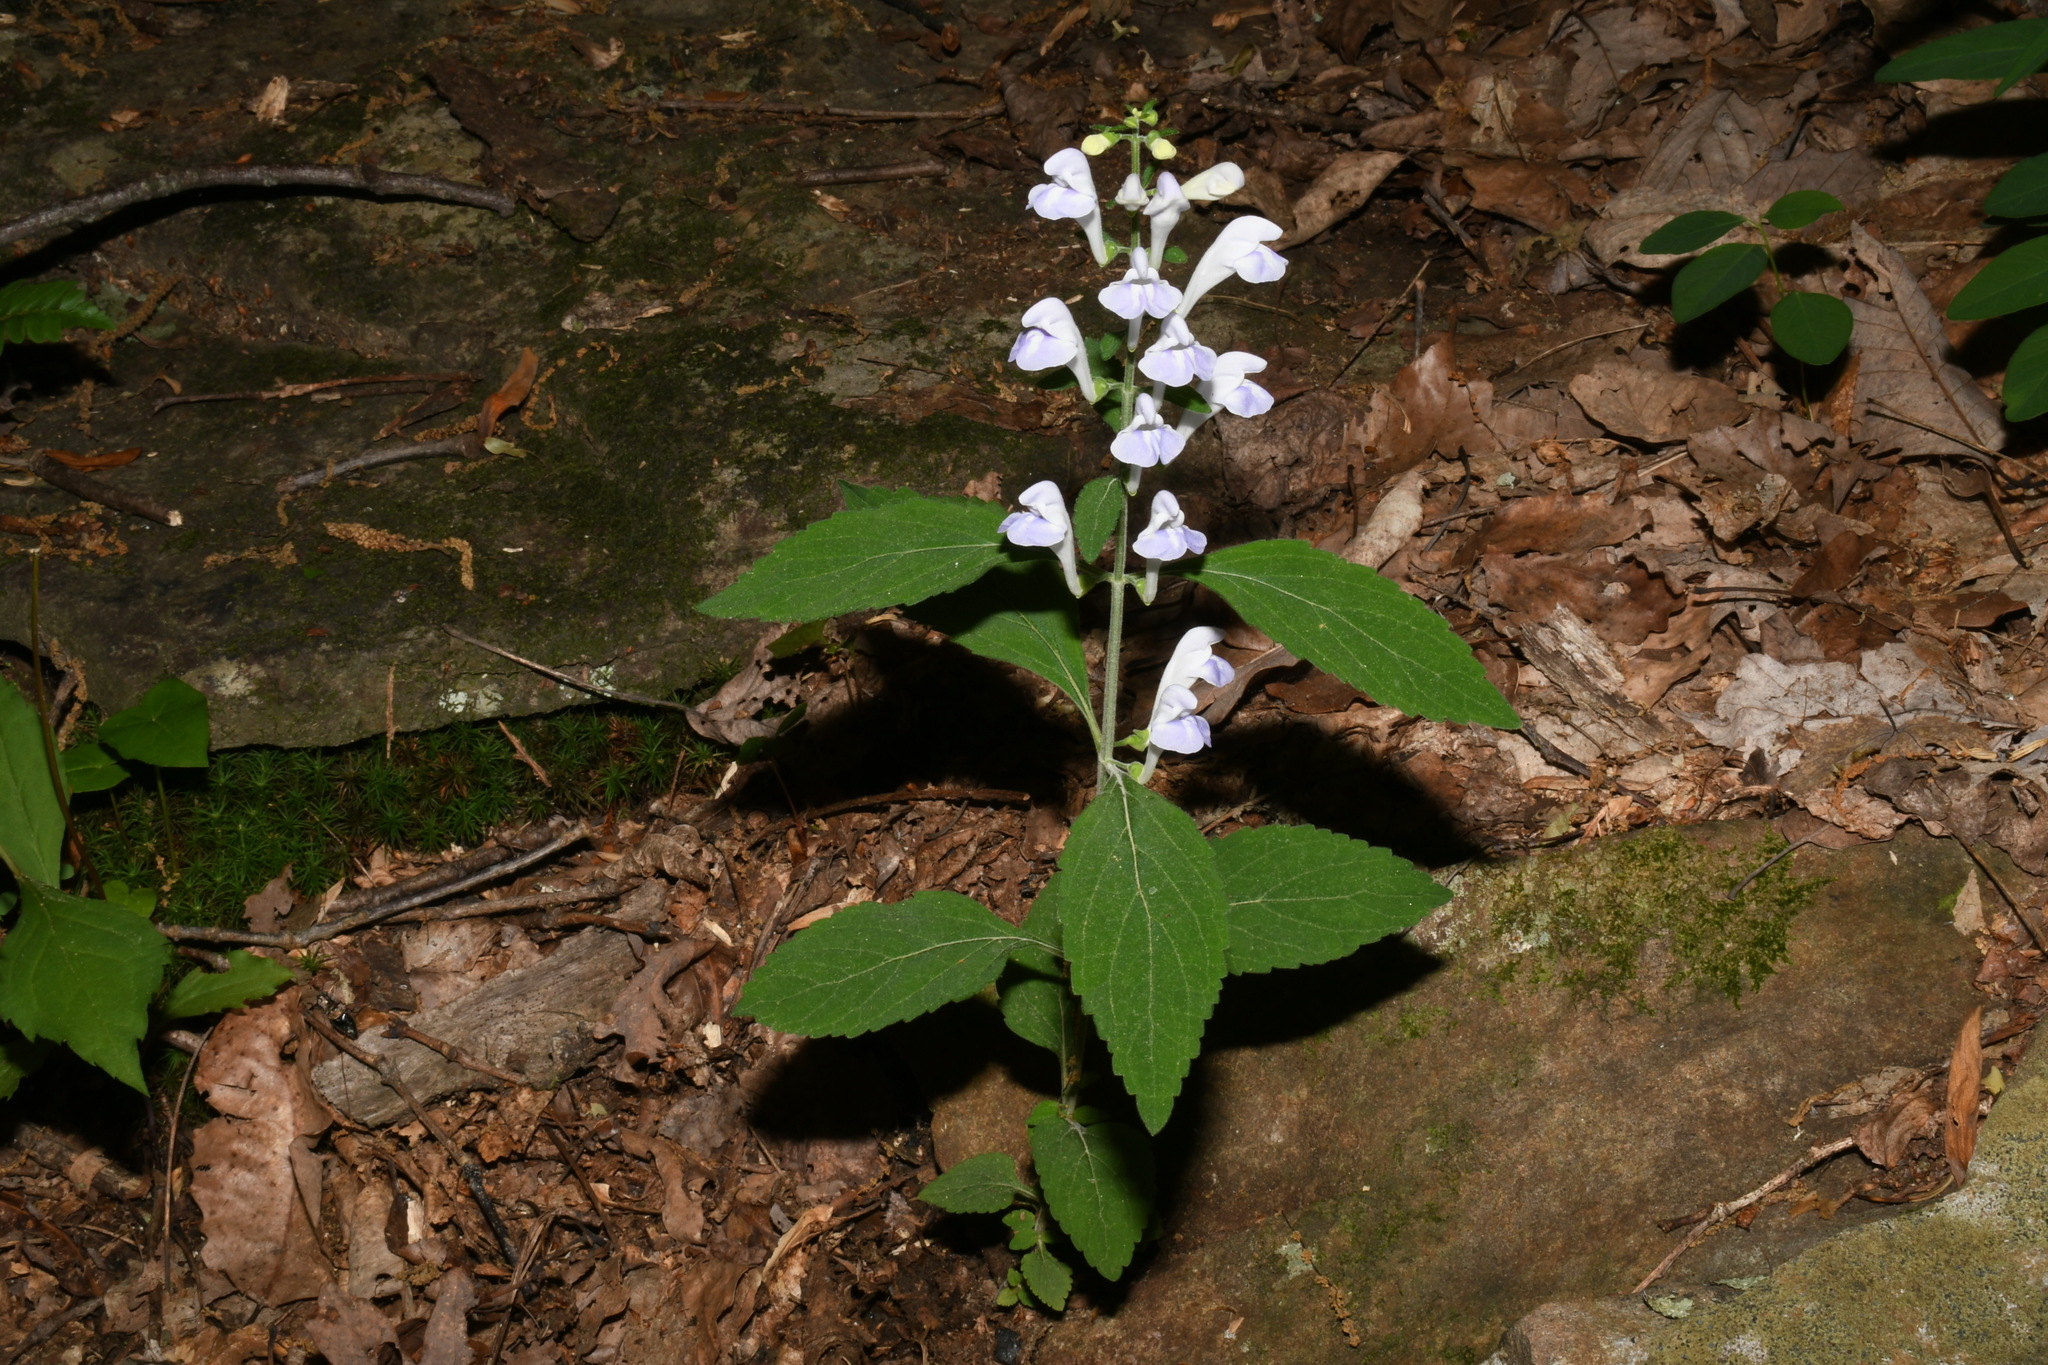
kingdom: Plantae
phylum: Tracheophyta
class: Magnoliopsida
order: Lamiales
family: Lamiaceae
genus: Scutellaria
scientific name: Scutellaria montana
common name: Large-flower skullcap
